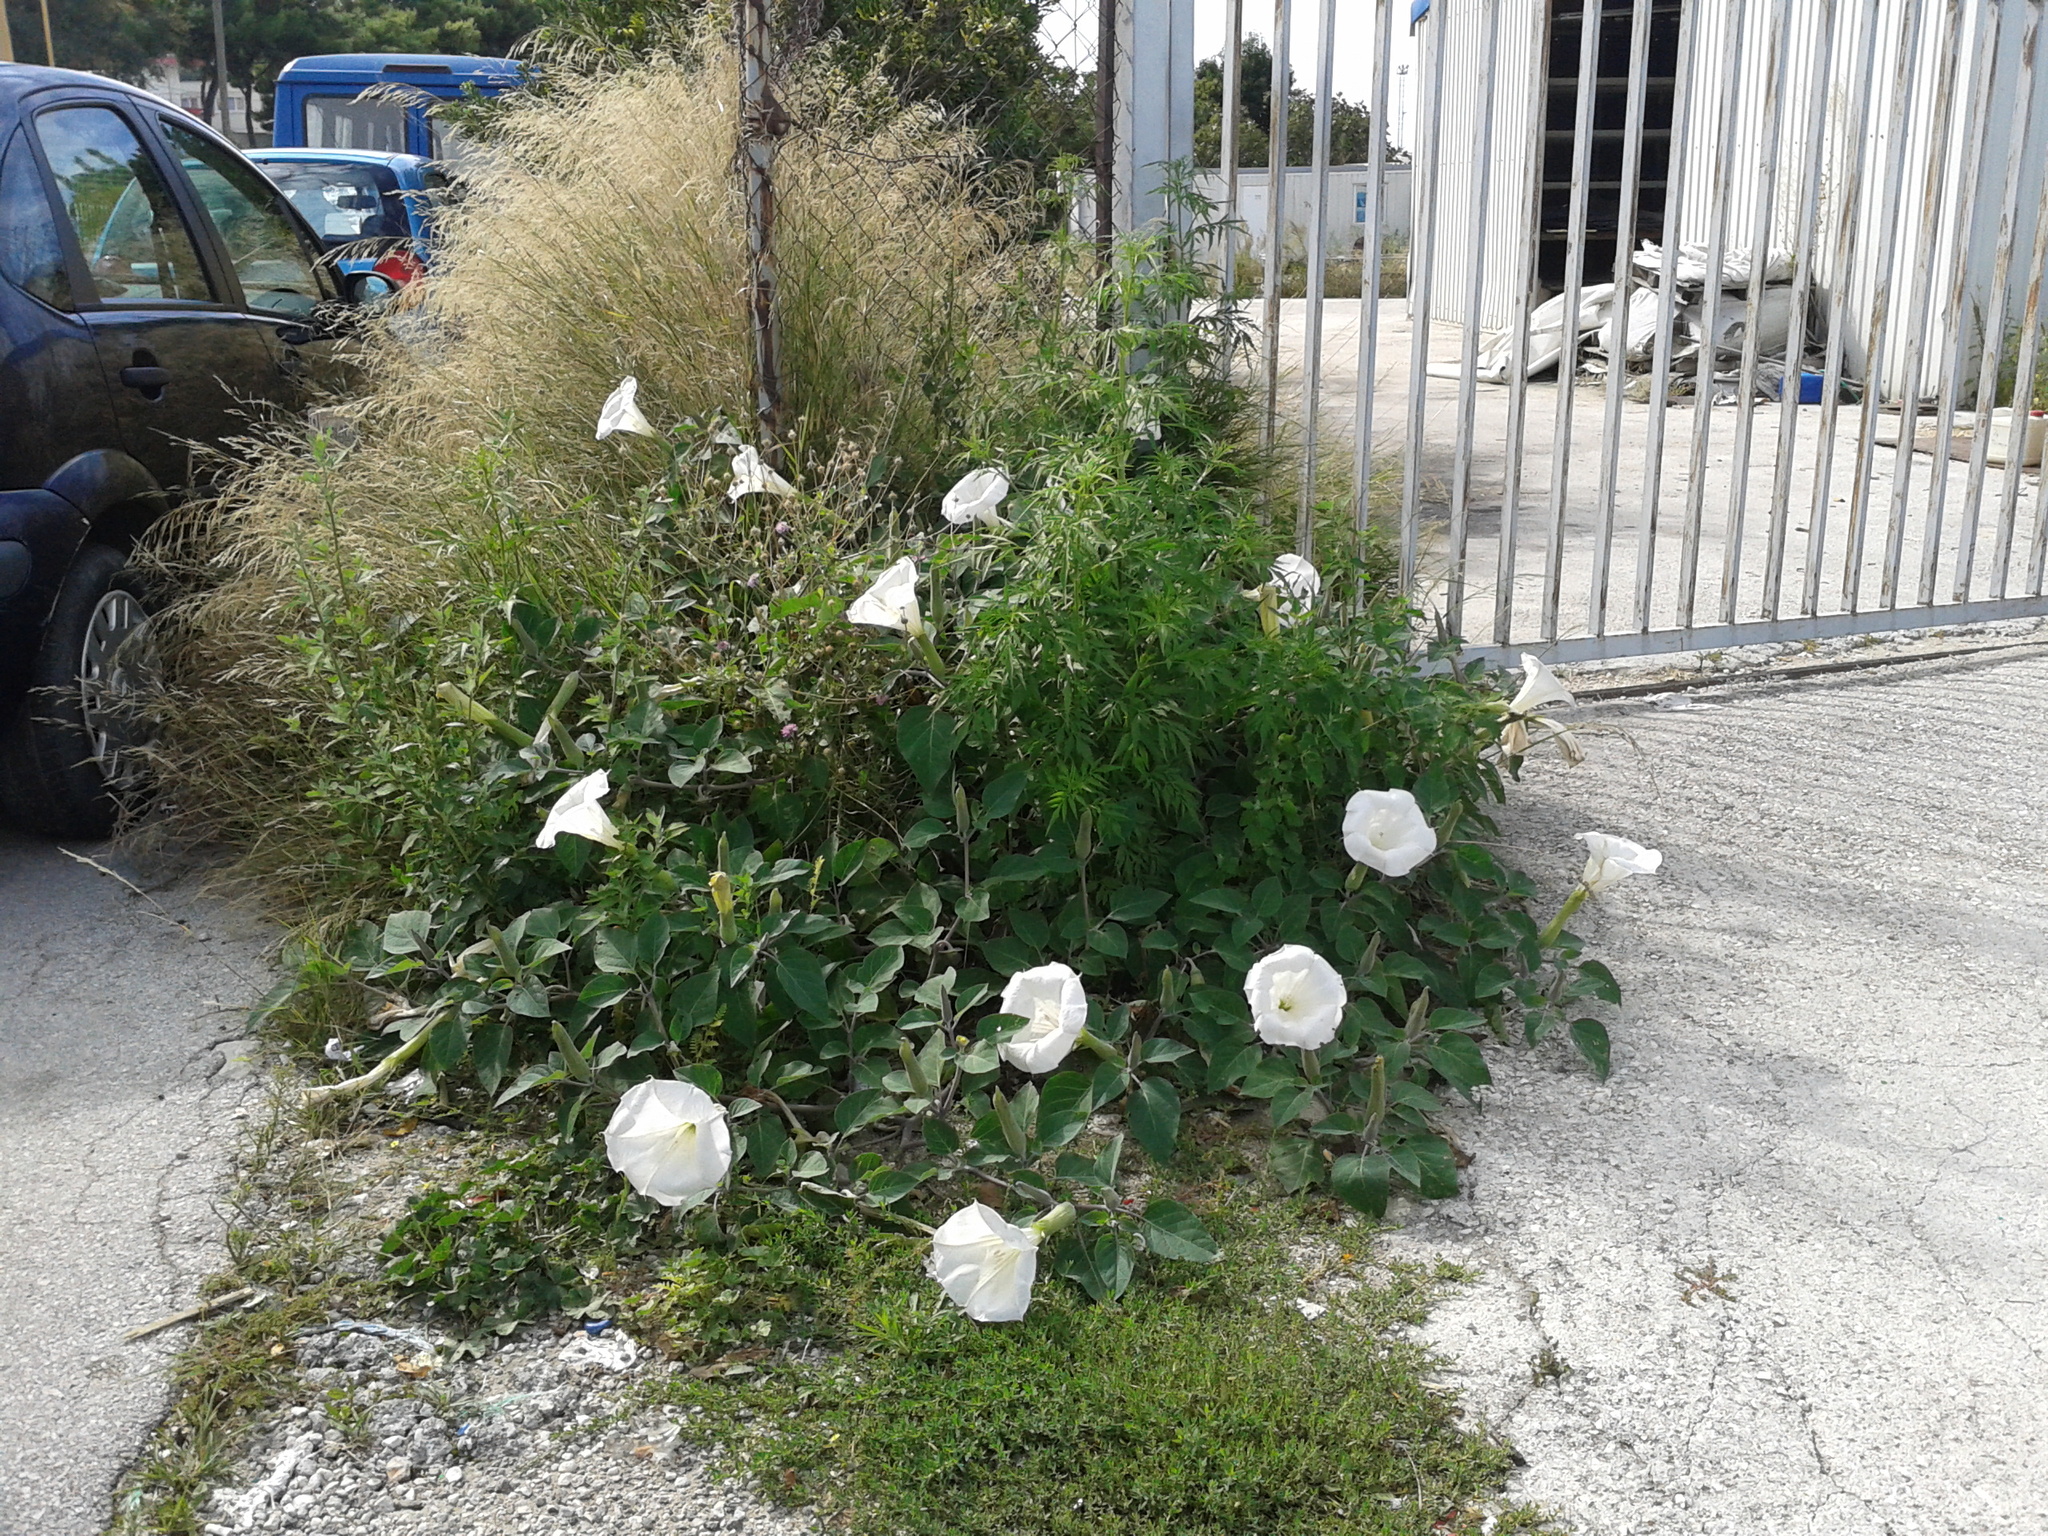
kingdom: Plantae
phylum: Tracheophyta
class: Magnoliopsida
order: Solanales
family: Solanaceae
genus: Datura
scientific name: Datura innoxia
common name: Downy thorn-apple
